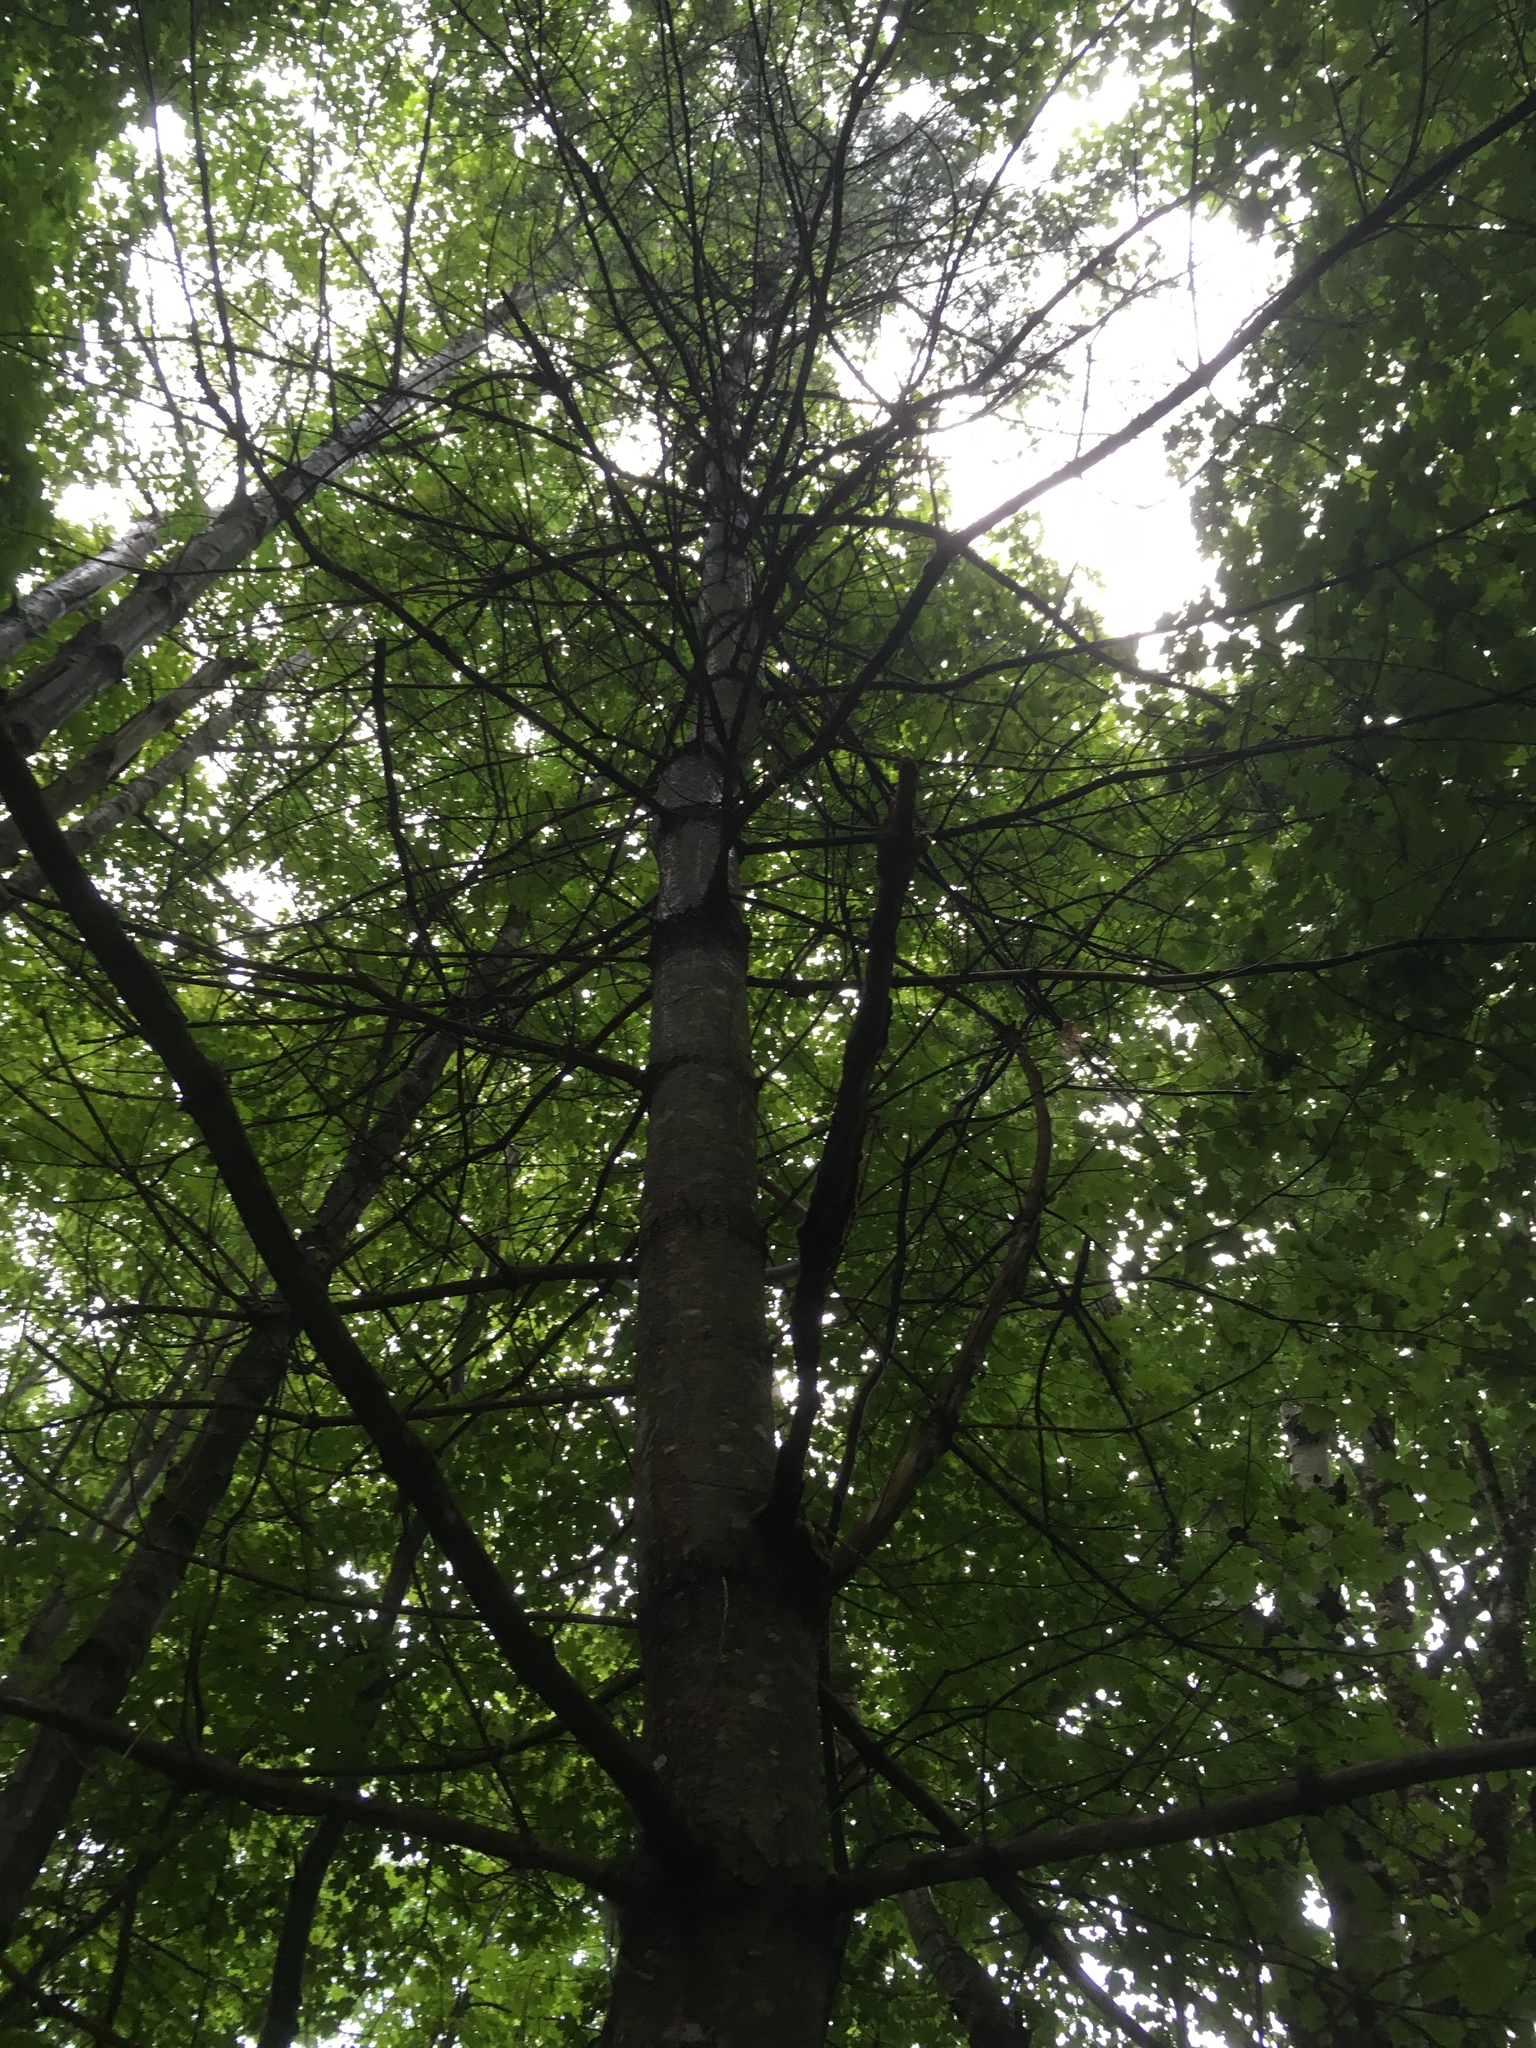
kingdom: Plantae
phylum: Tracheophyta
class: Pinopsida
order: Pinales
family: Pinaceae
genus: Pinus
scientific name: Pinus strobus
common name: Weymouth pine
